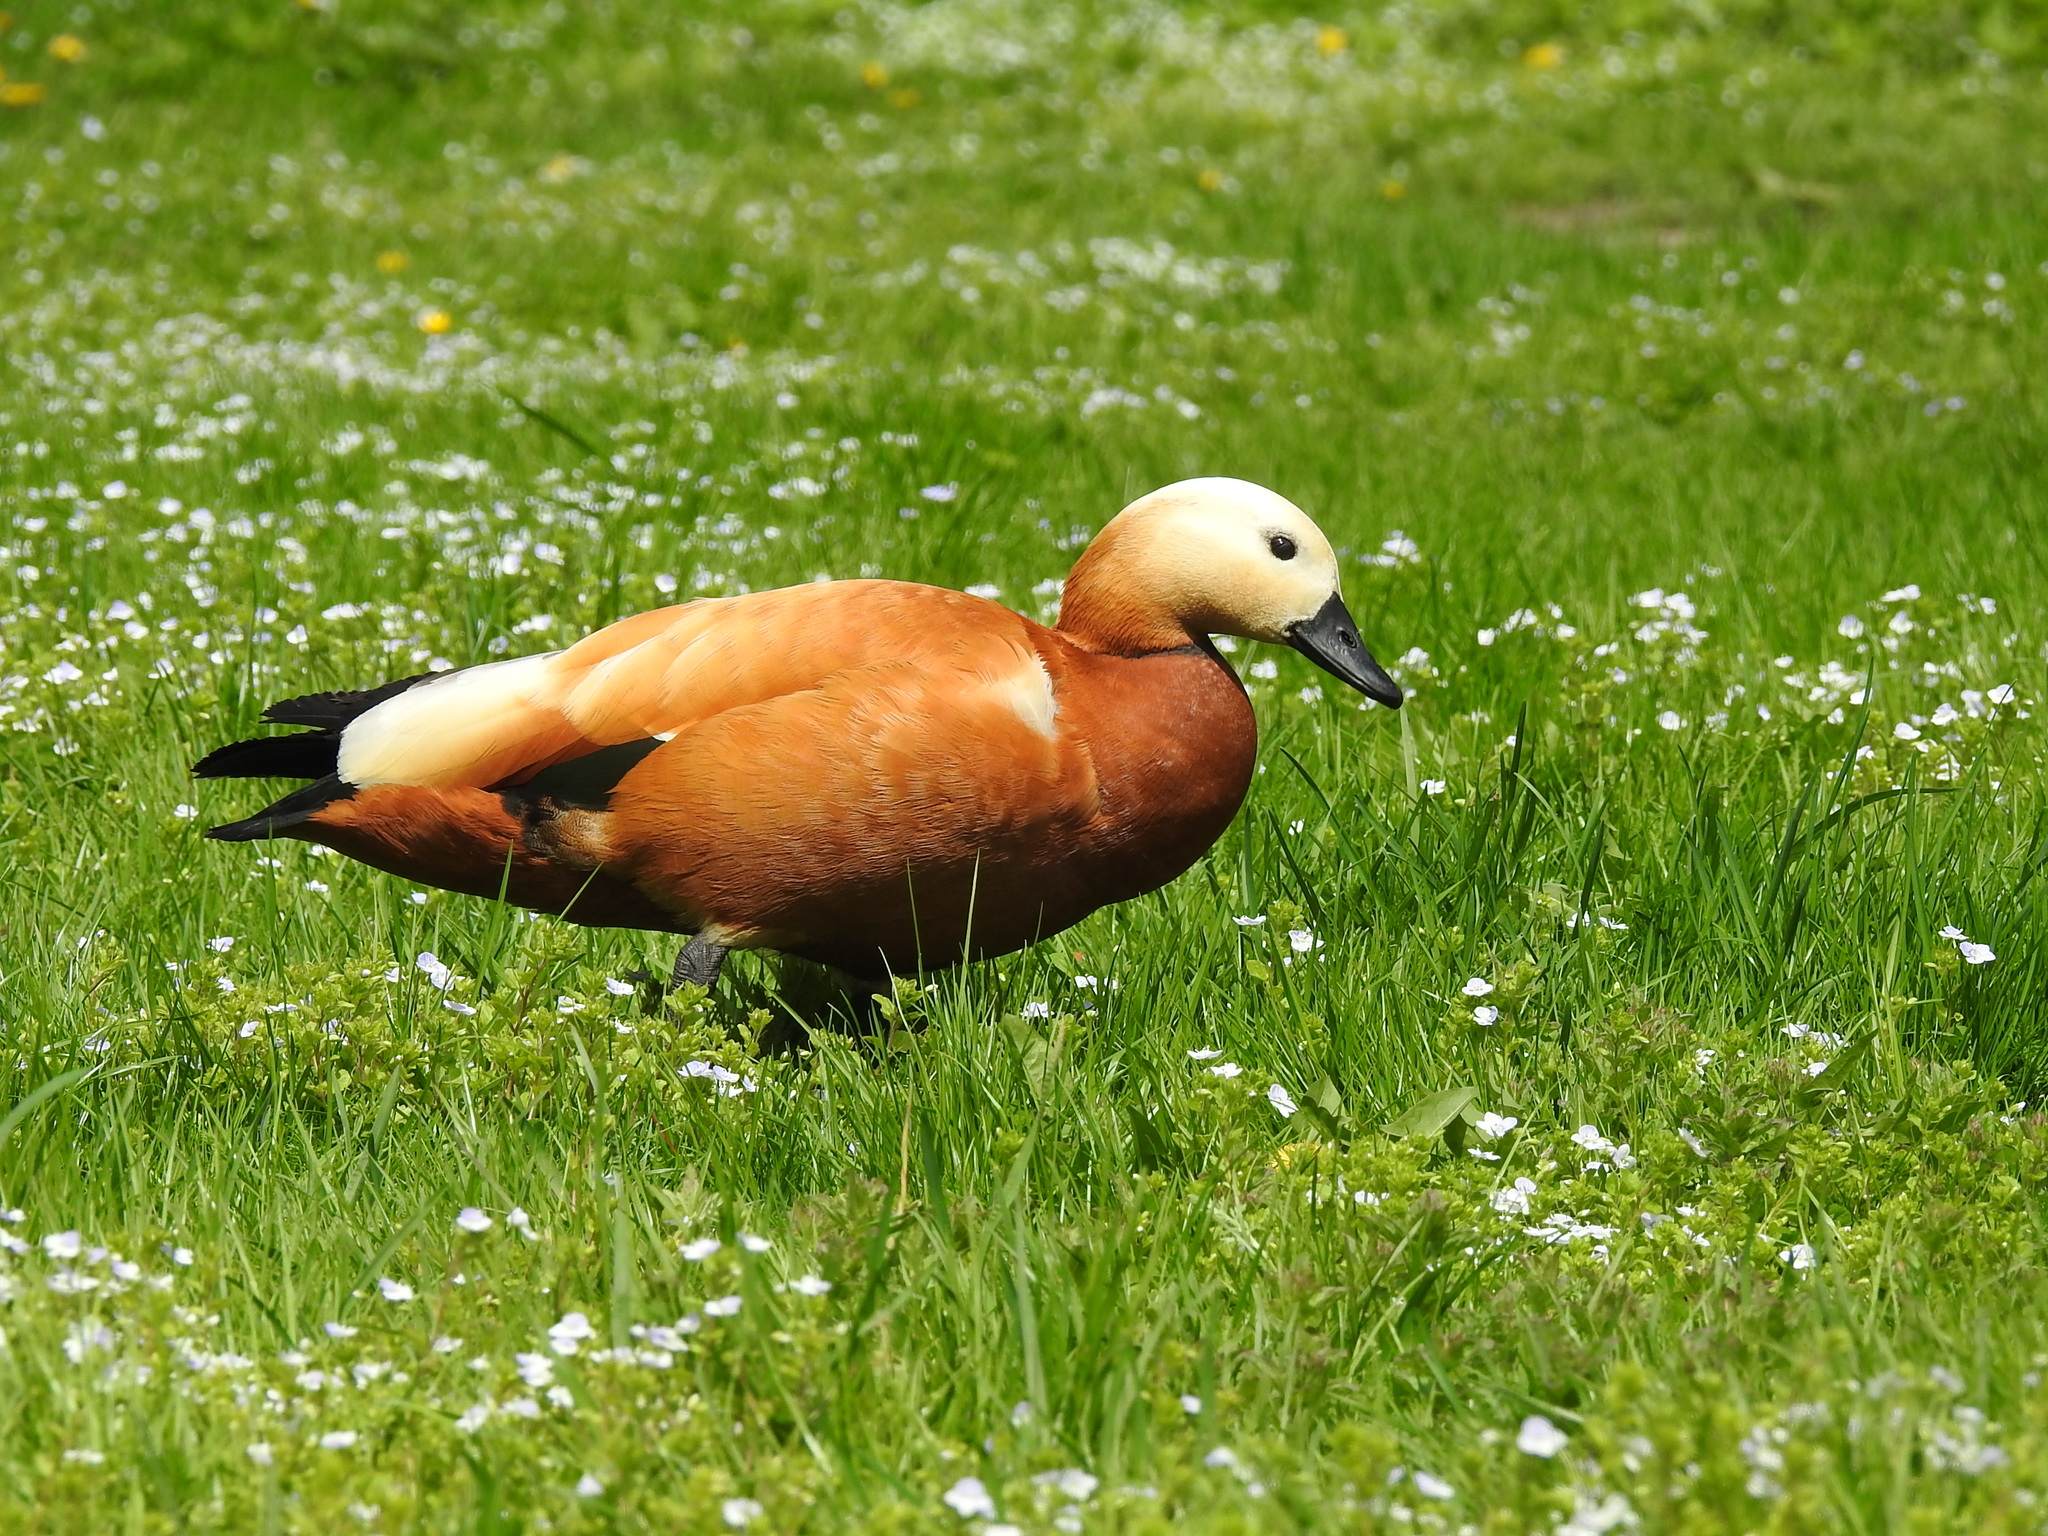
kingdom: Animalia
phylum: Chordata
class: Aves
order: Anseriformes
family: Anatidae
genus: Tadorna
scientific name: Tadorna ferruginea
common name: Ruddy shelduck
